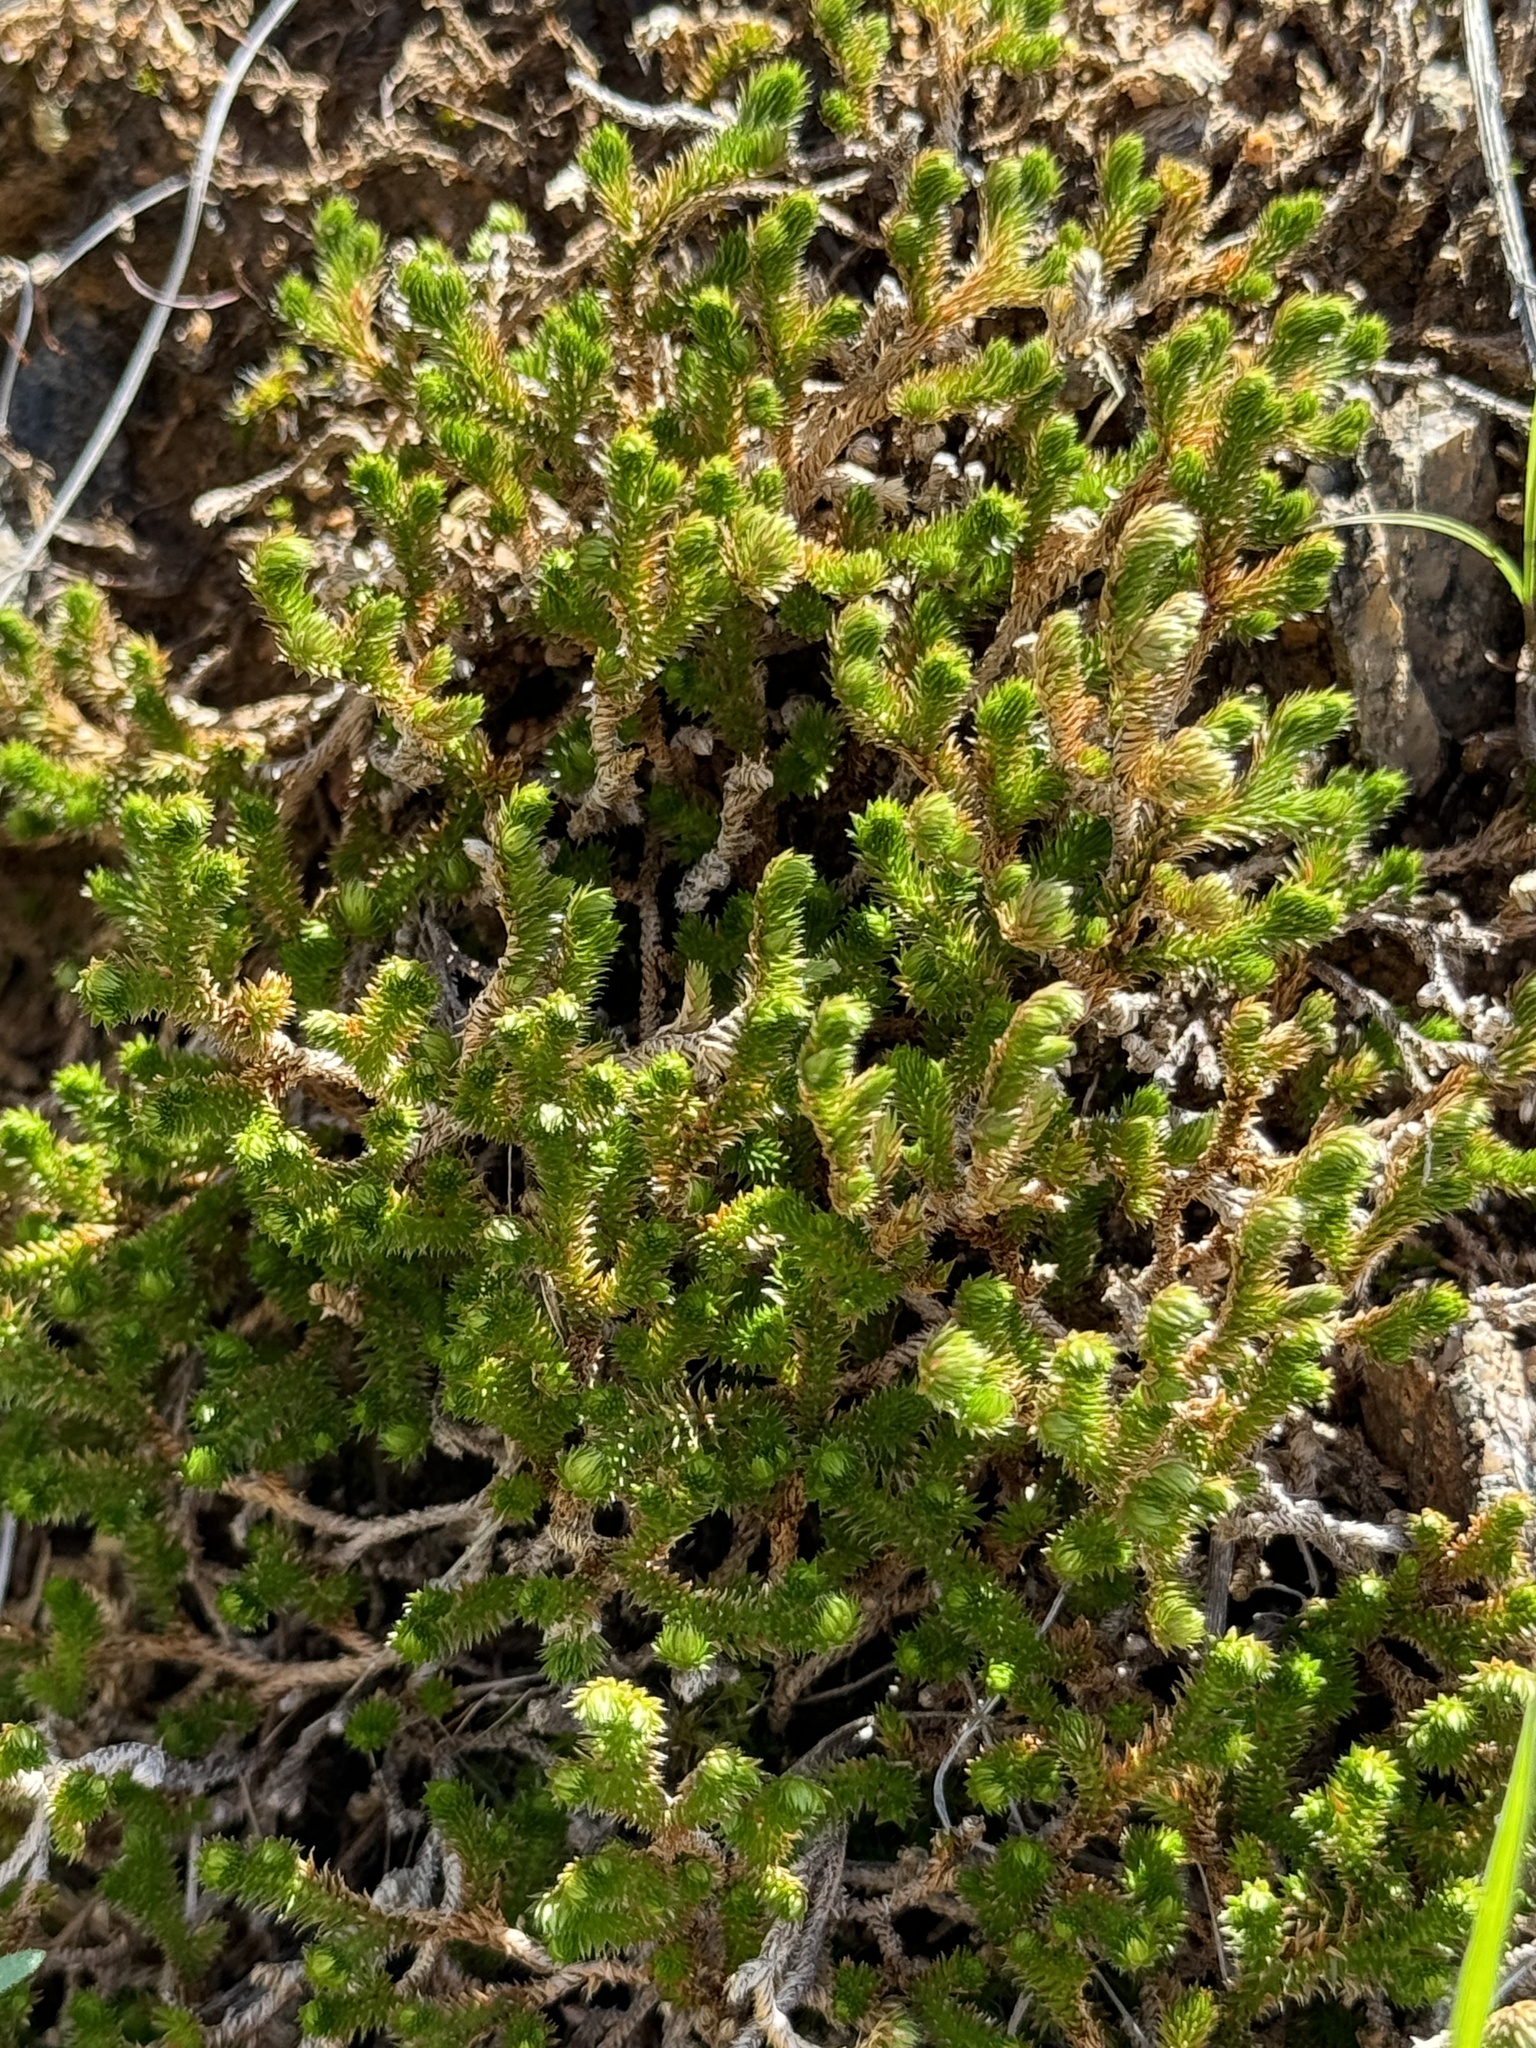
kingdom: Plantae
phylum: Tracheophyta
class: Lycopodiopsida
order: Selaginellales
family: Selaginellaceae
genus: Selaginella
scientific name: Selaginella arizonica
